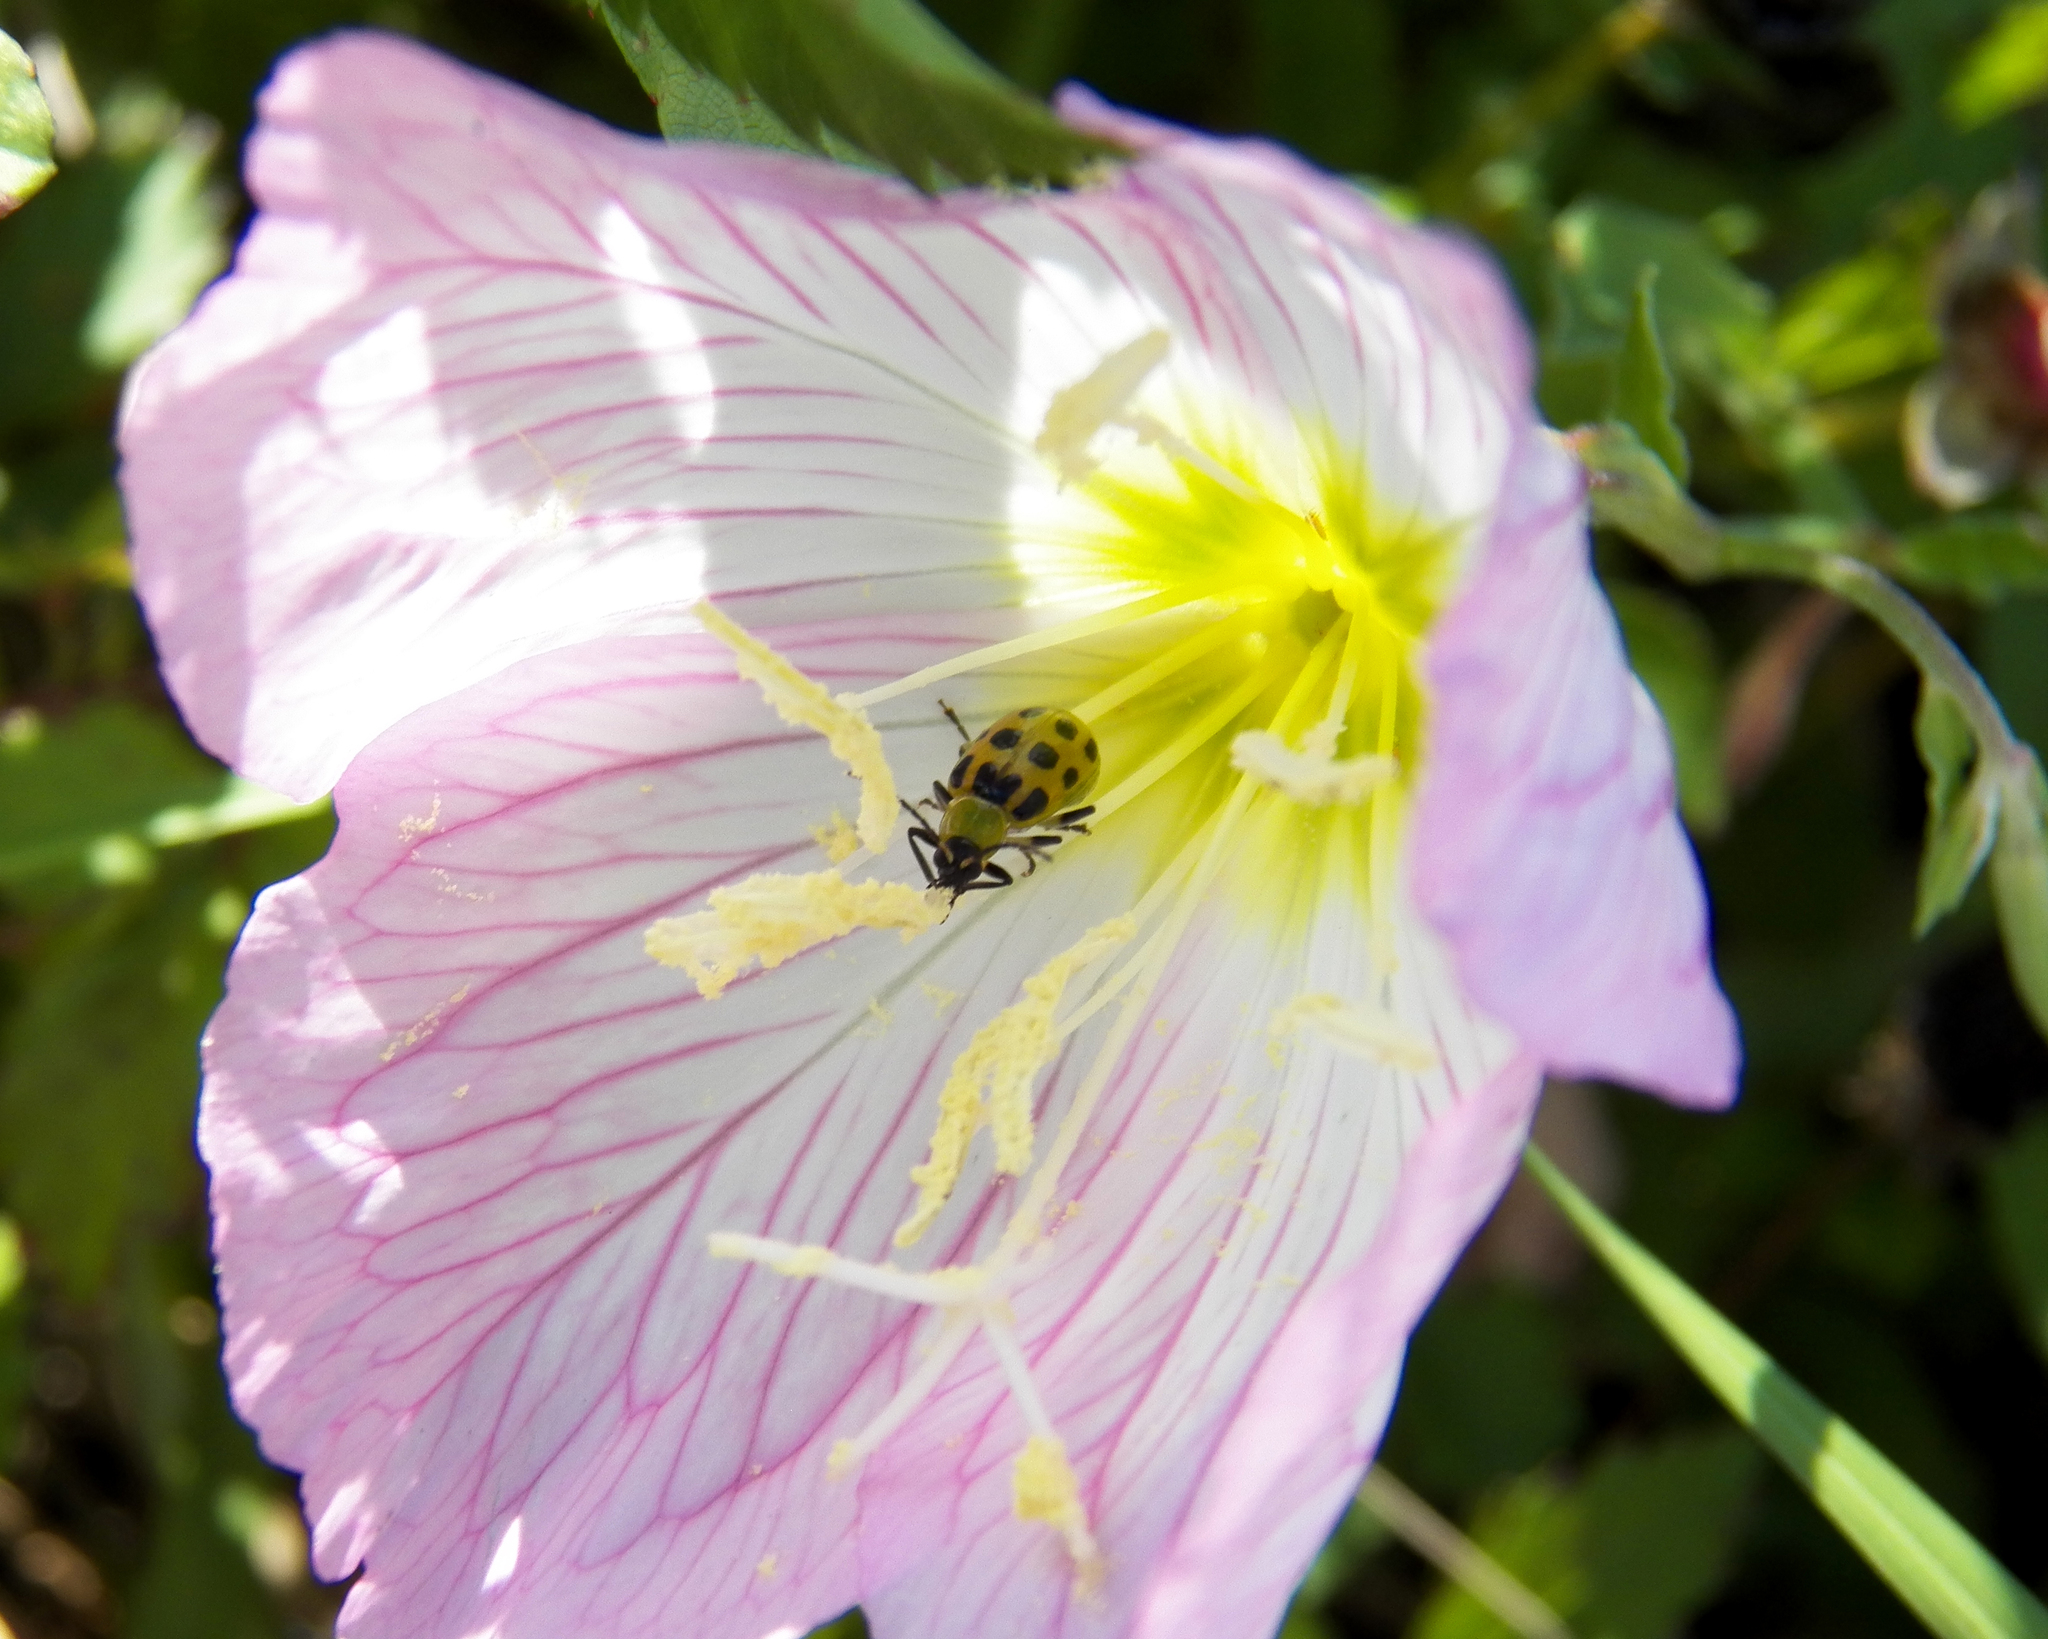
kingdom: Plantae
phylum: Tracheophyta
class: Magnoliopsida
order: Myrtales
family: Onagraceae
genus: Oenothera
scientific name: Oenothera speciosa
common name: White evening-primrose
